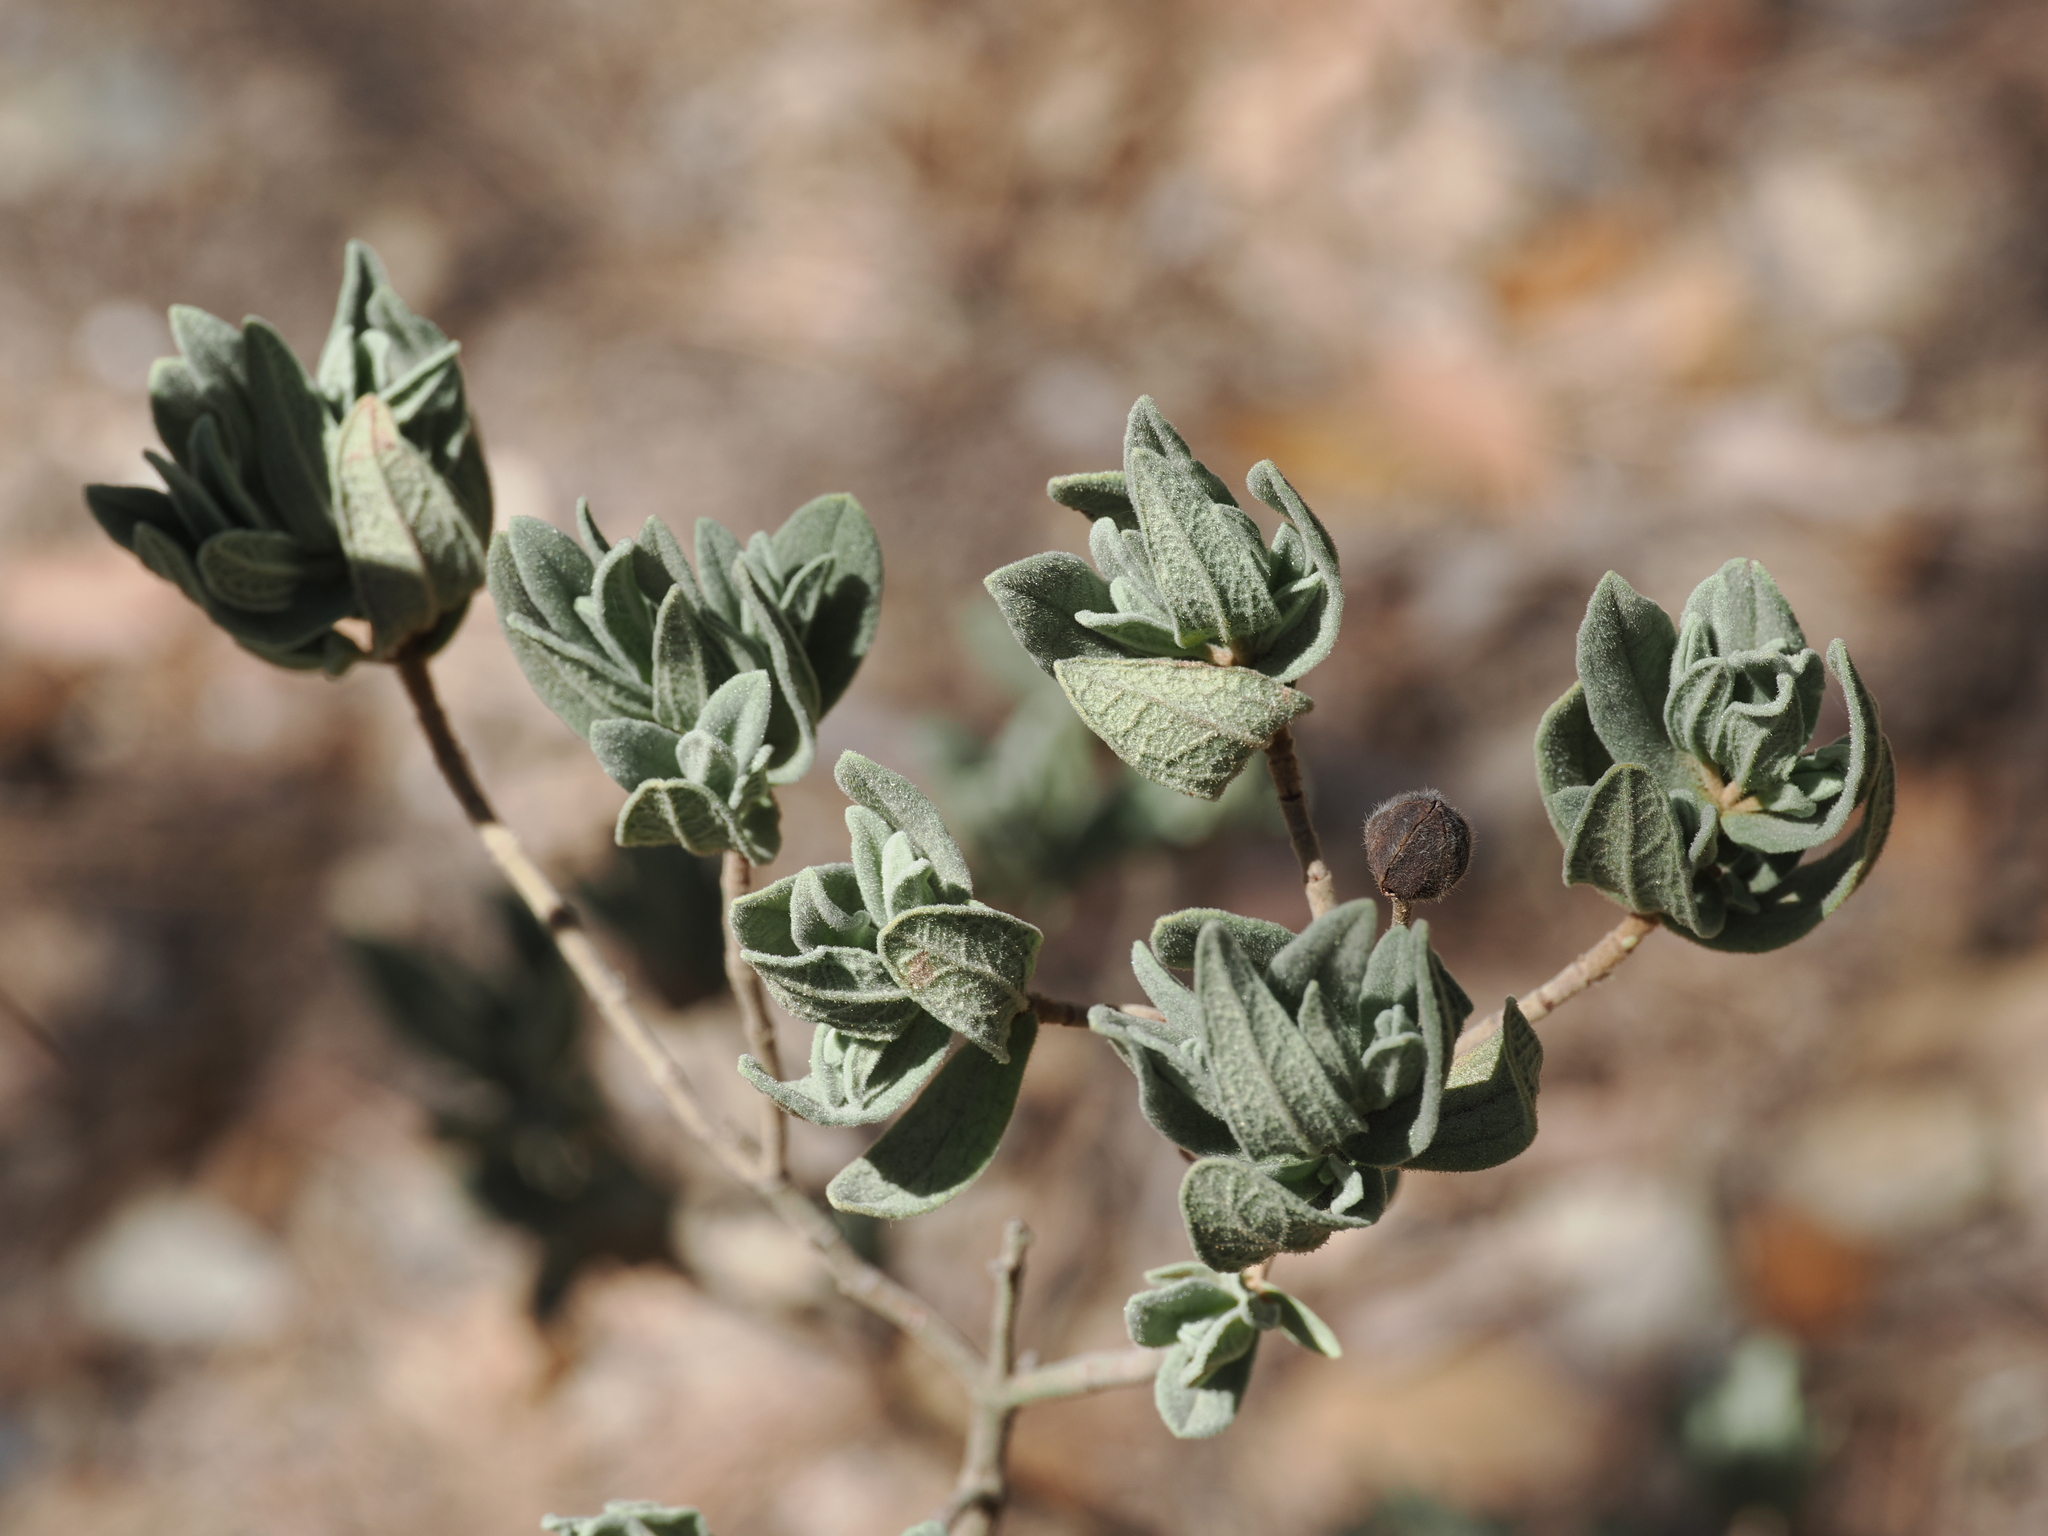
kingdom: Plantae
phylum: Tracheophyta
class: Magnoliopsida
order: Malvales
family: Cistaceae
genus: Cistus
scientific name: Cistus albidus
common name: White-leaf rock-rose
